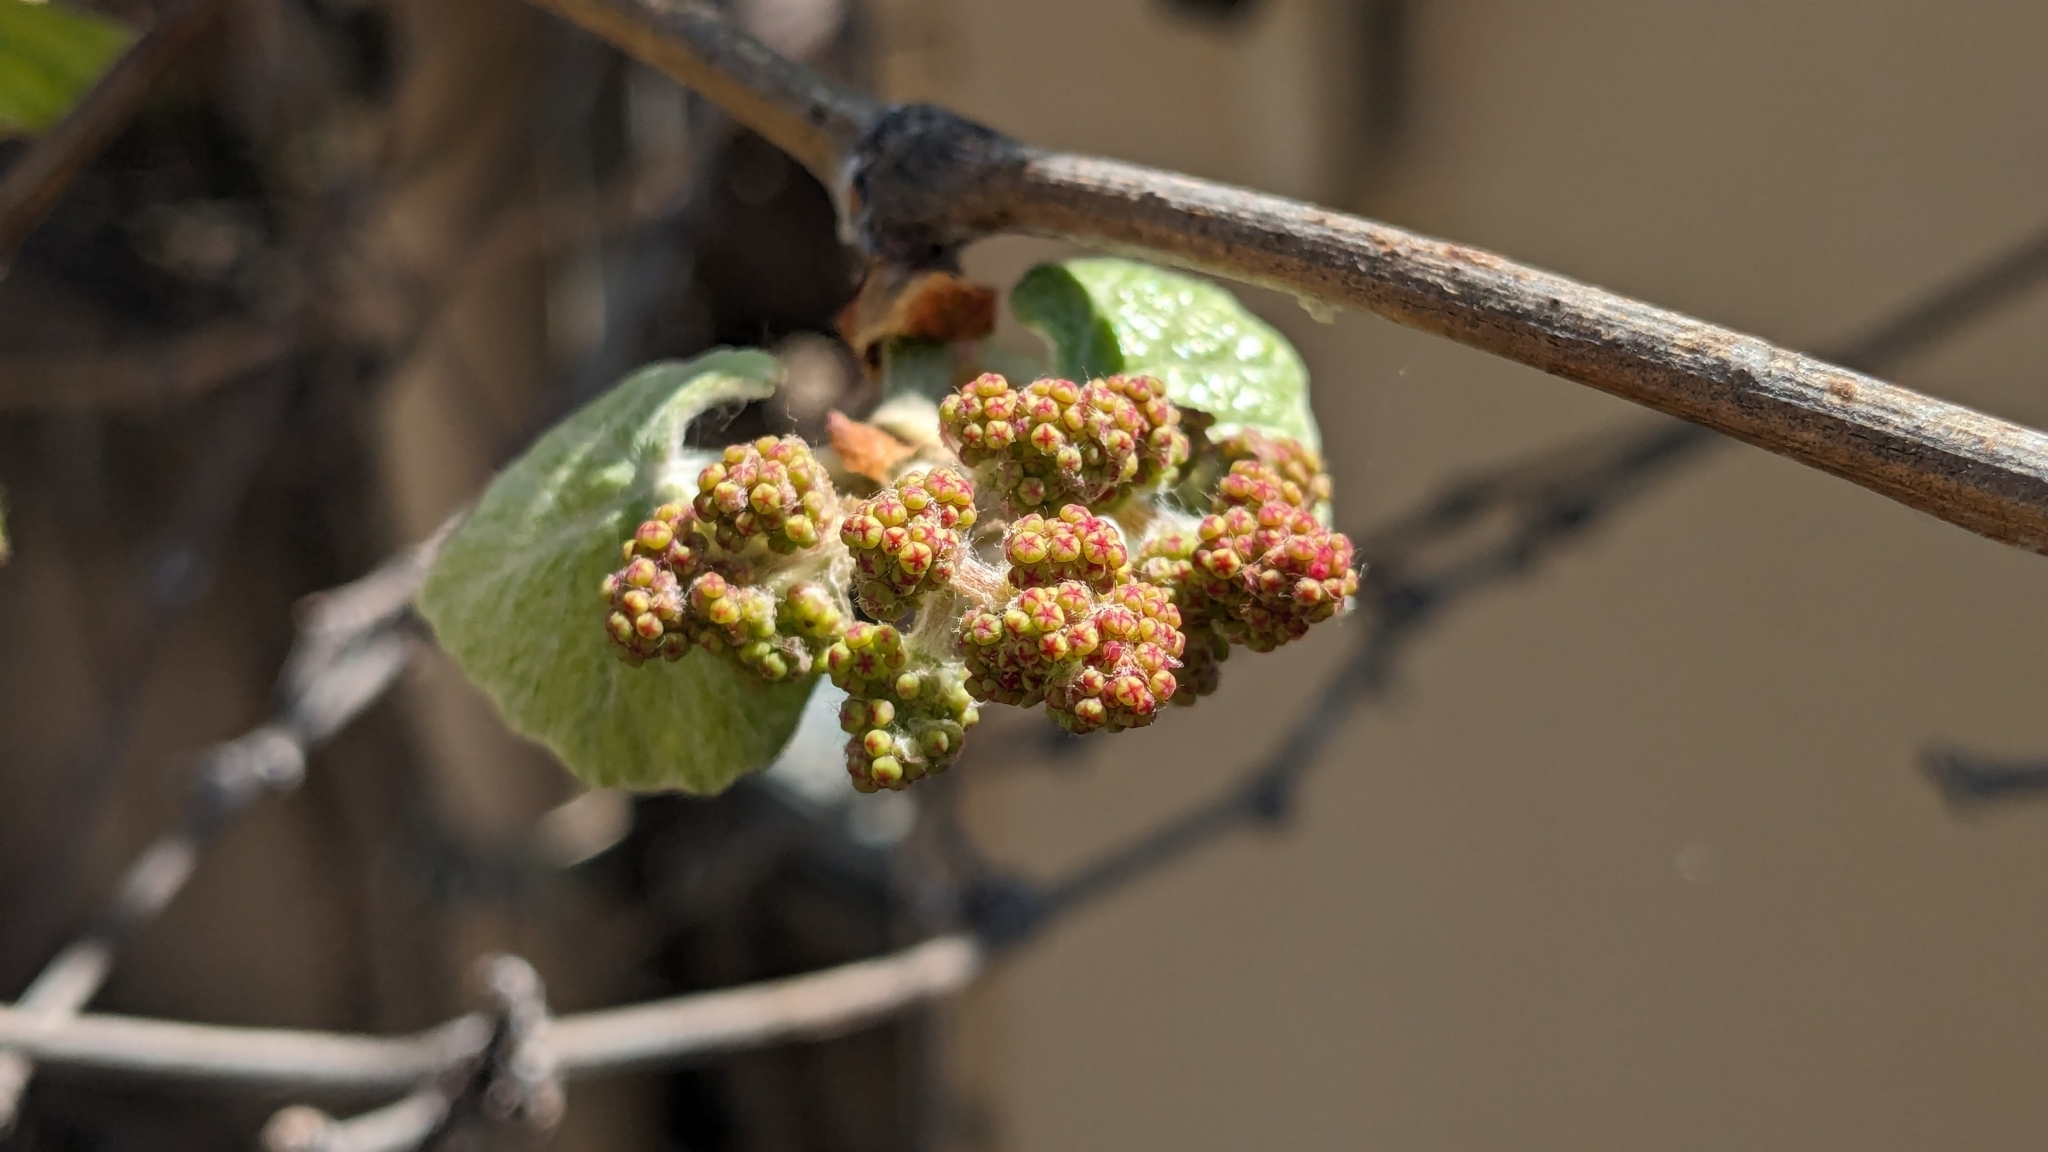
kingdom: Plantae
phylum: Tracheophyta
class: Magnoliopsida
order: Vitales
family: Vitaceae
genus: Vitis
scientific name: Vitis mustangensis
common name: Mustang grape
